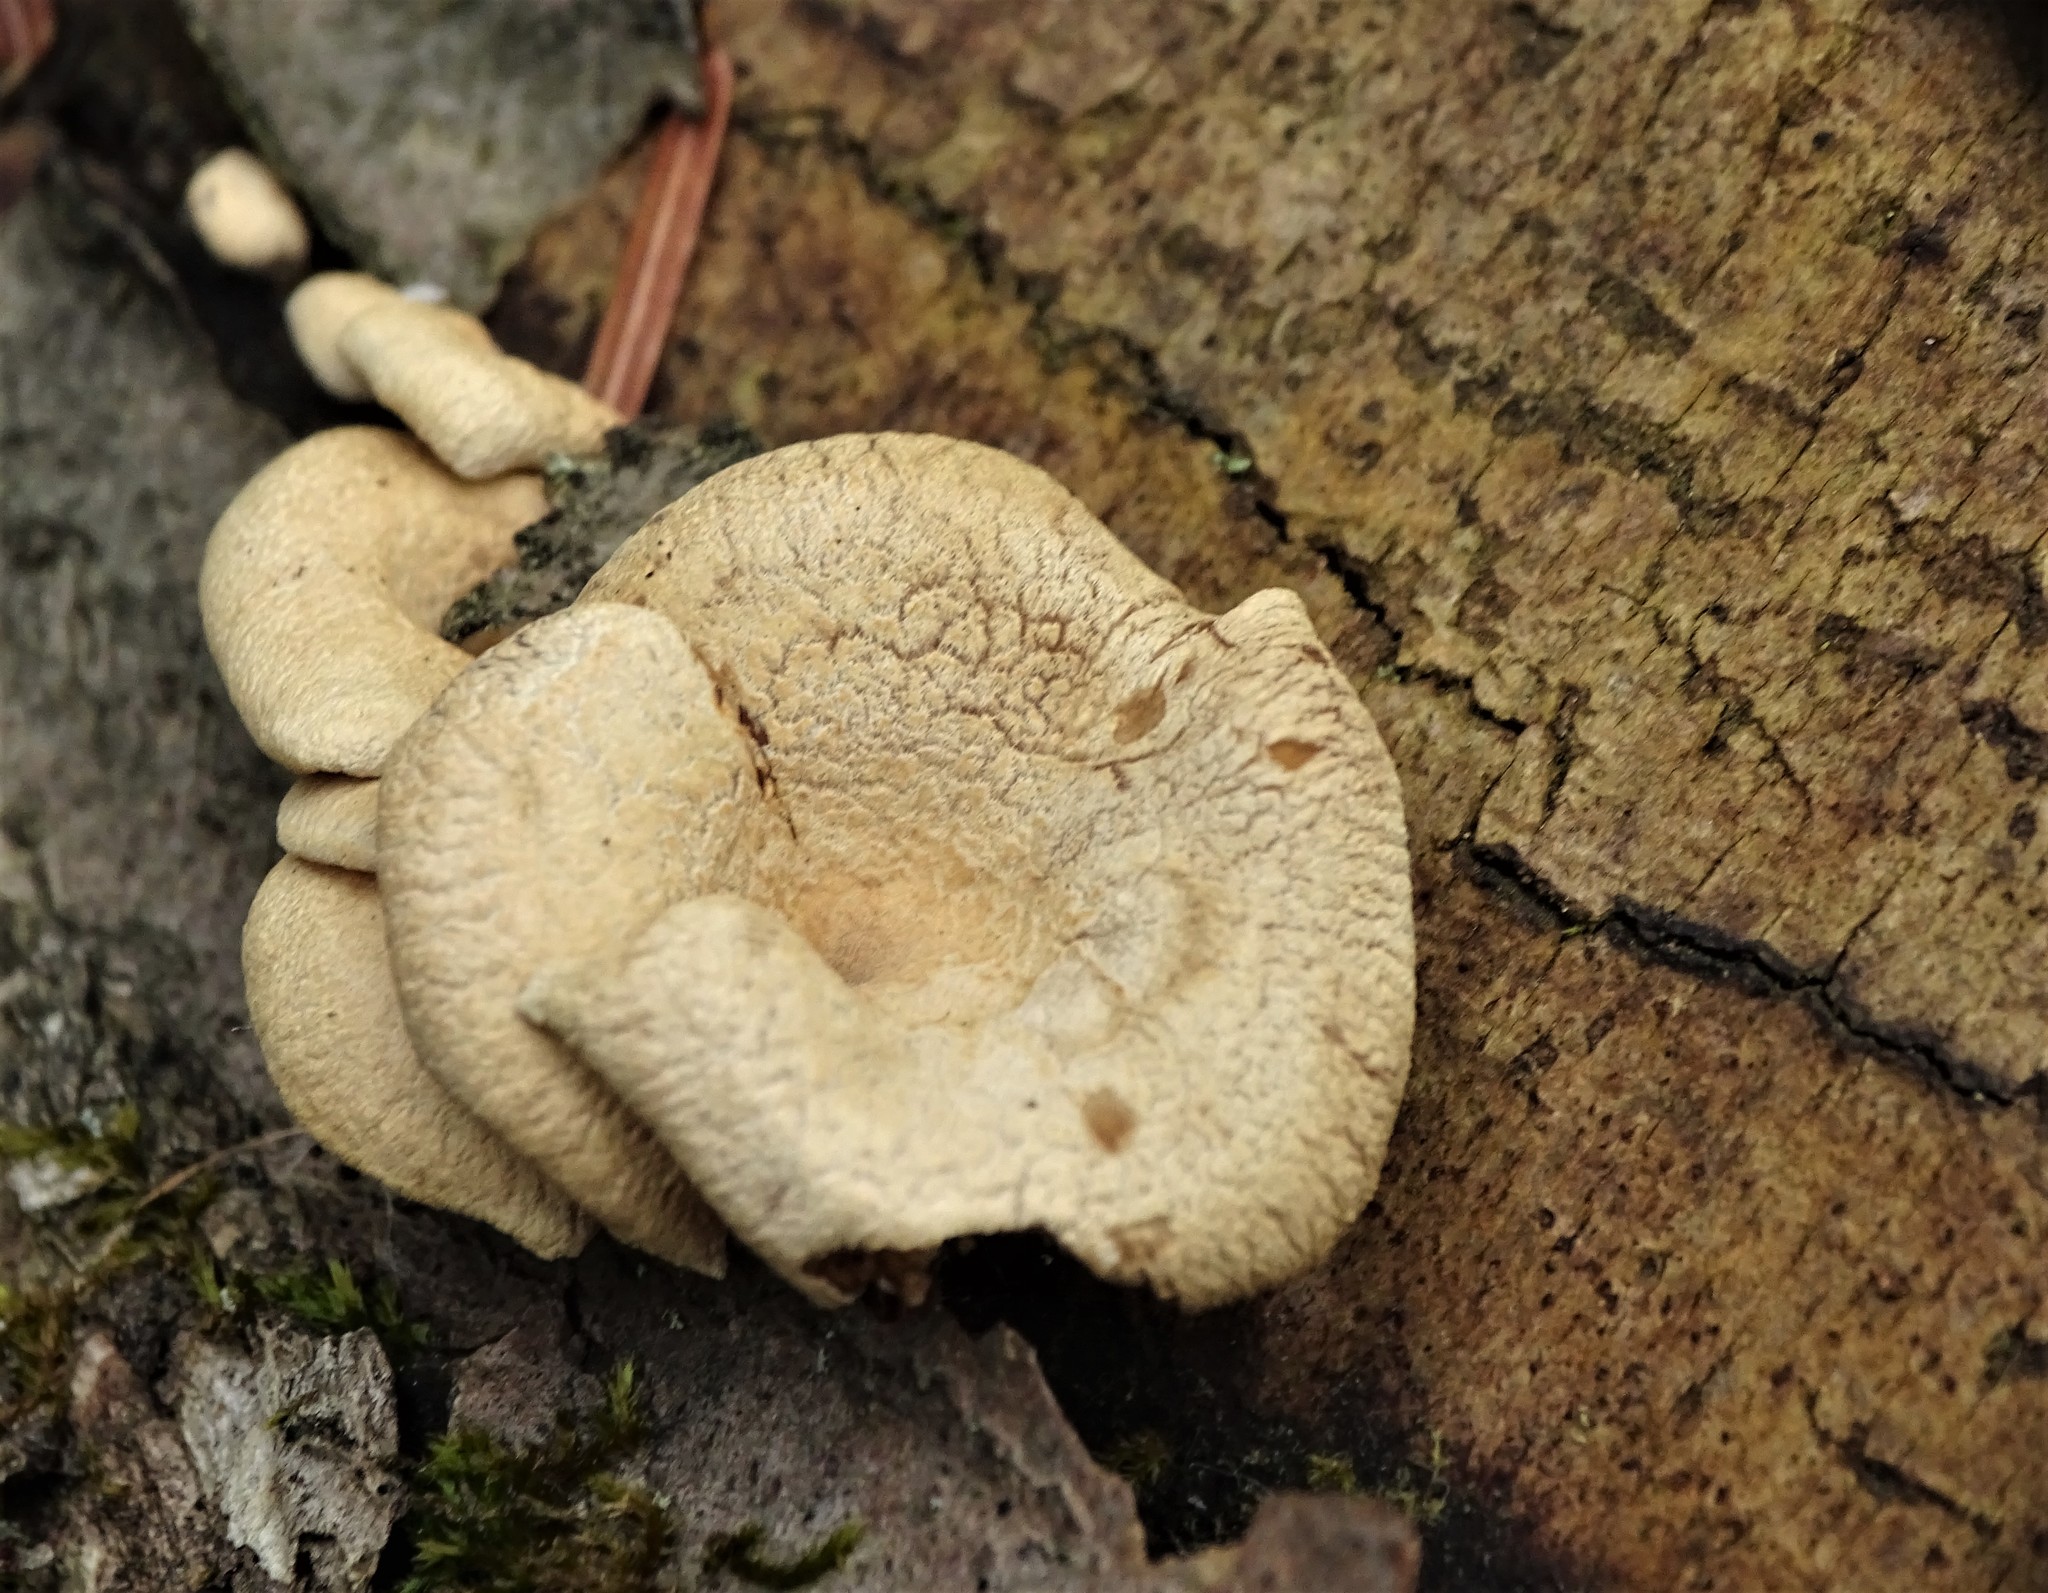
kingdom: Fungi
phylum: Basidiomycota
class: Agaricomycetes
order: Agaricales
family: Mycenaceae
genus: Panellus
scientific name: Panellus stipticus
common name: Bitter oysterling
